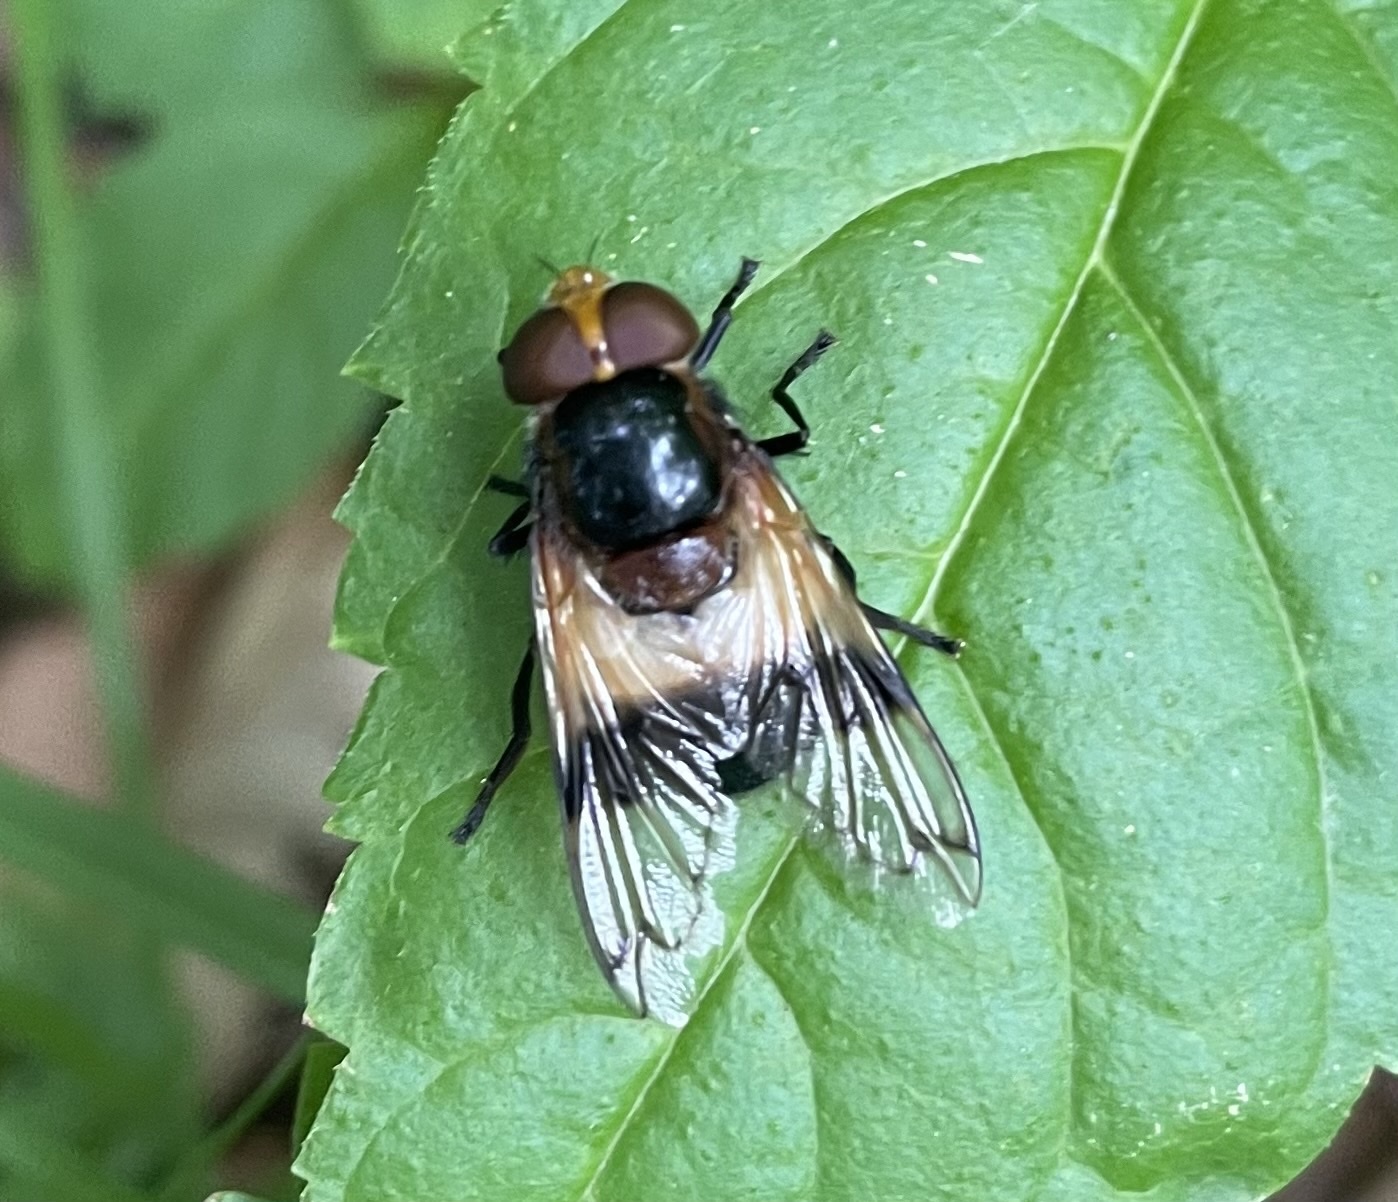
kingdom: Animalia
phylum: Arthropoda
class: Insecta
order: Diptera
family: Syrphidae
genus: Volucella
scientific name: Volucella pellucens
